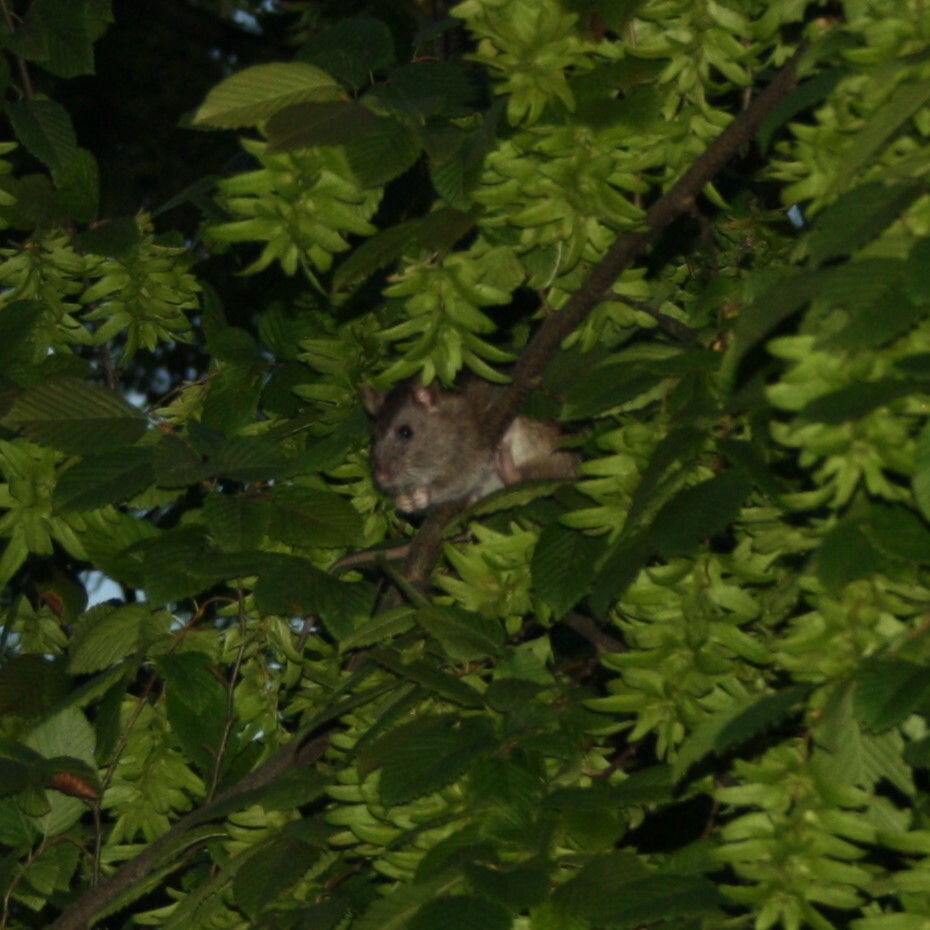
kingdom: Animalia
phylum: Chordata
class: Mammalia
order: Rodentia
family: Muridae
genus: Rattus
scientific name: Rattus norvegicus
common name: Brown rat
